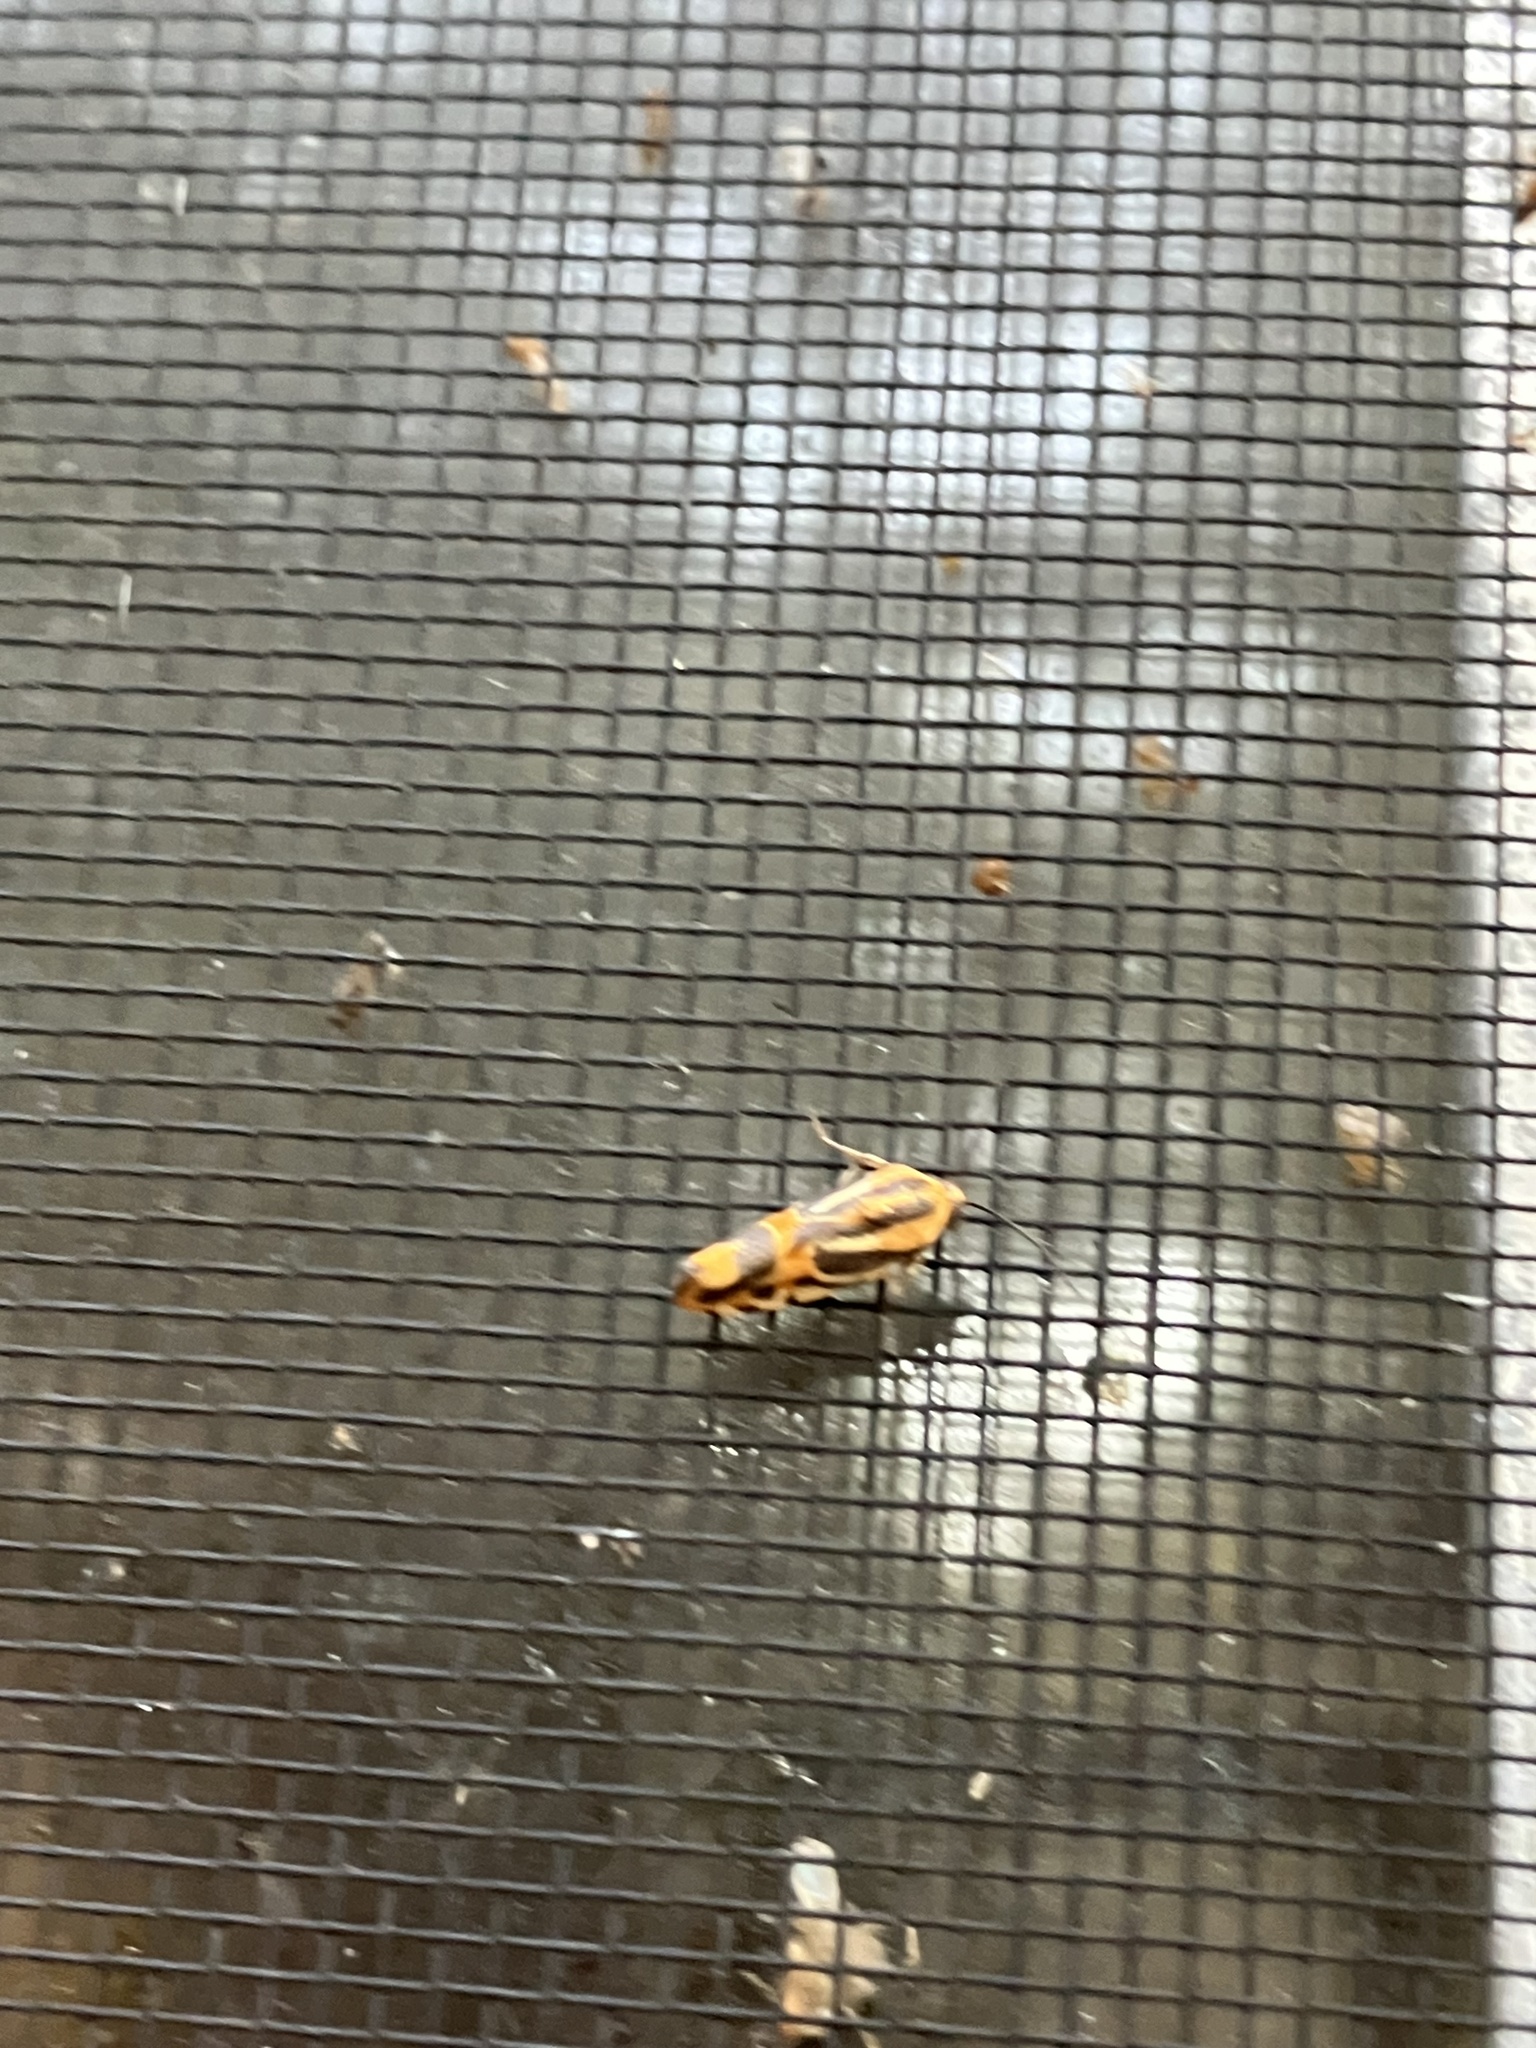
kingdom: Animalia
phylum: Arthropoda
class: Insecta
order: Lepidoptera
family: Noctuidae
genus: Acontia
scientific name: Acontia onagrus
